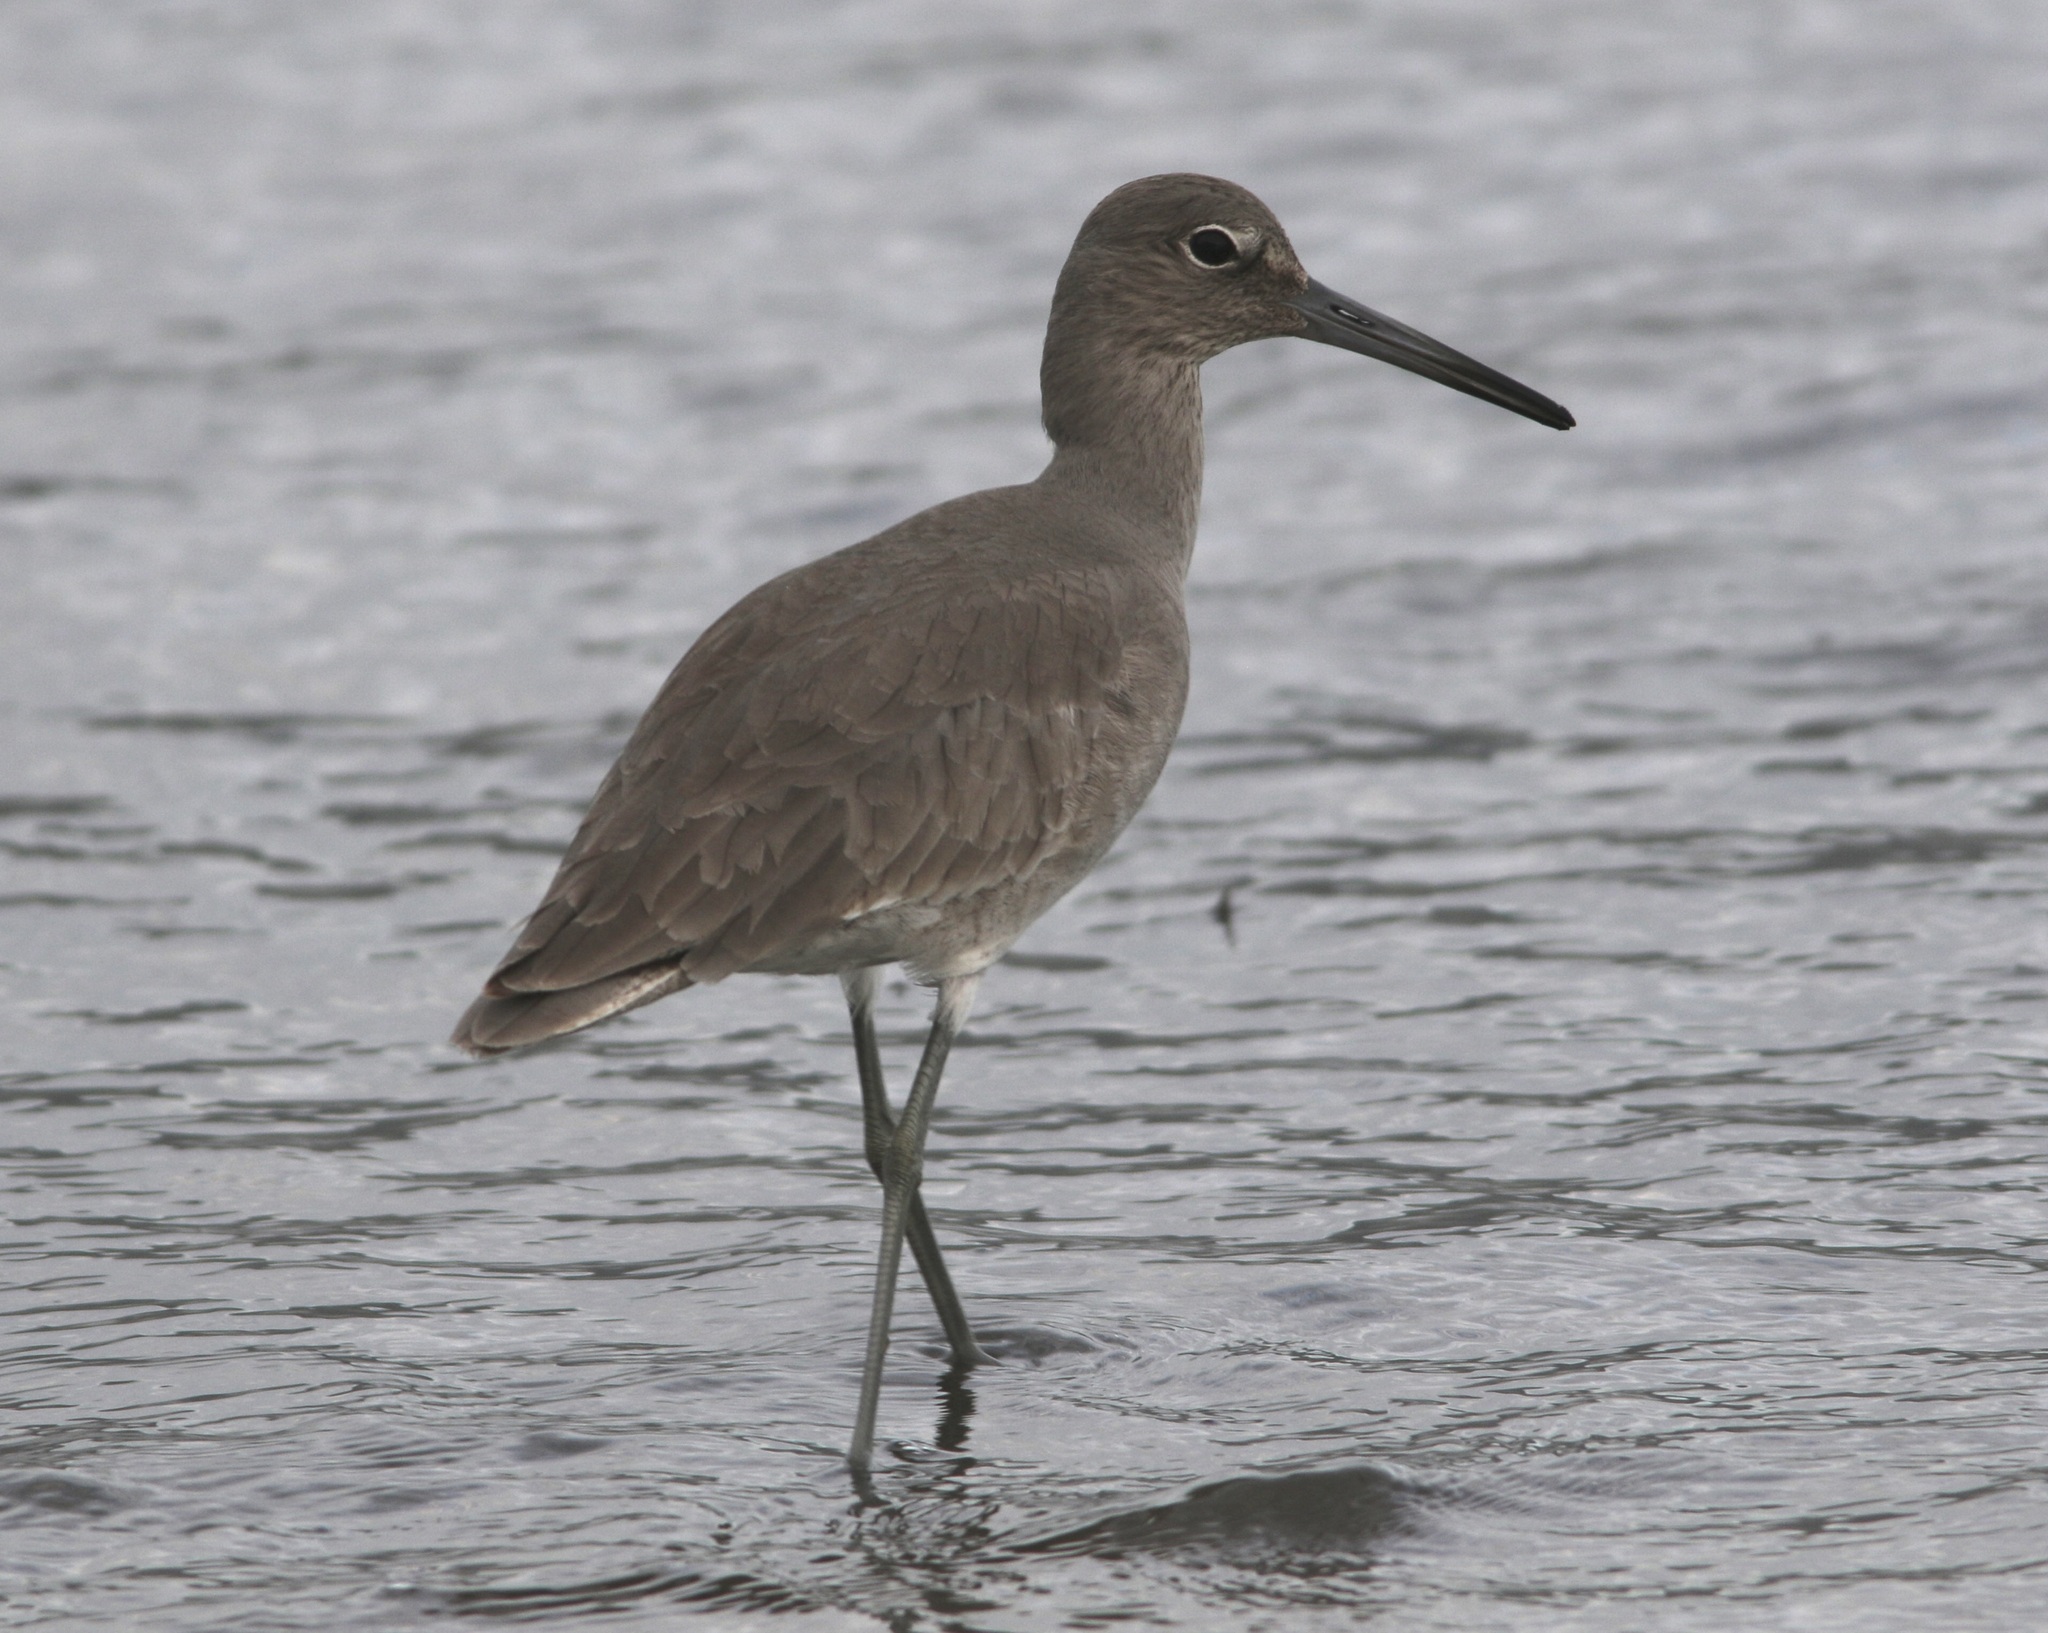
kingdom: Animalia
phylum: Chordata
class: Aves
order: Charadriiformes
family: Scolopacidae
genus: Tringa
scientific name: Tringa semipalmata
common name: Willet
